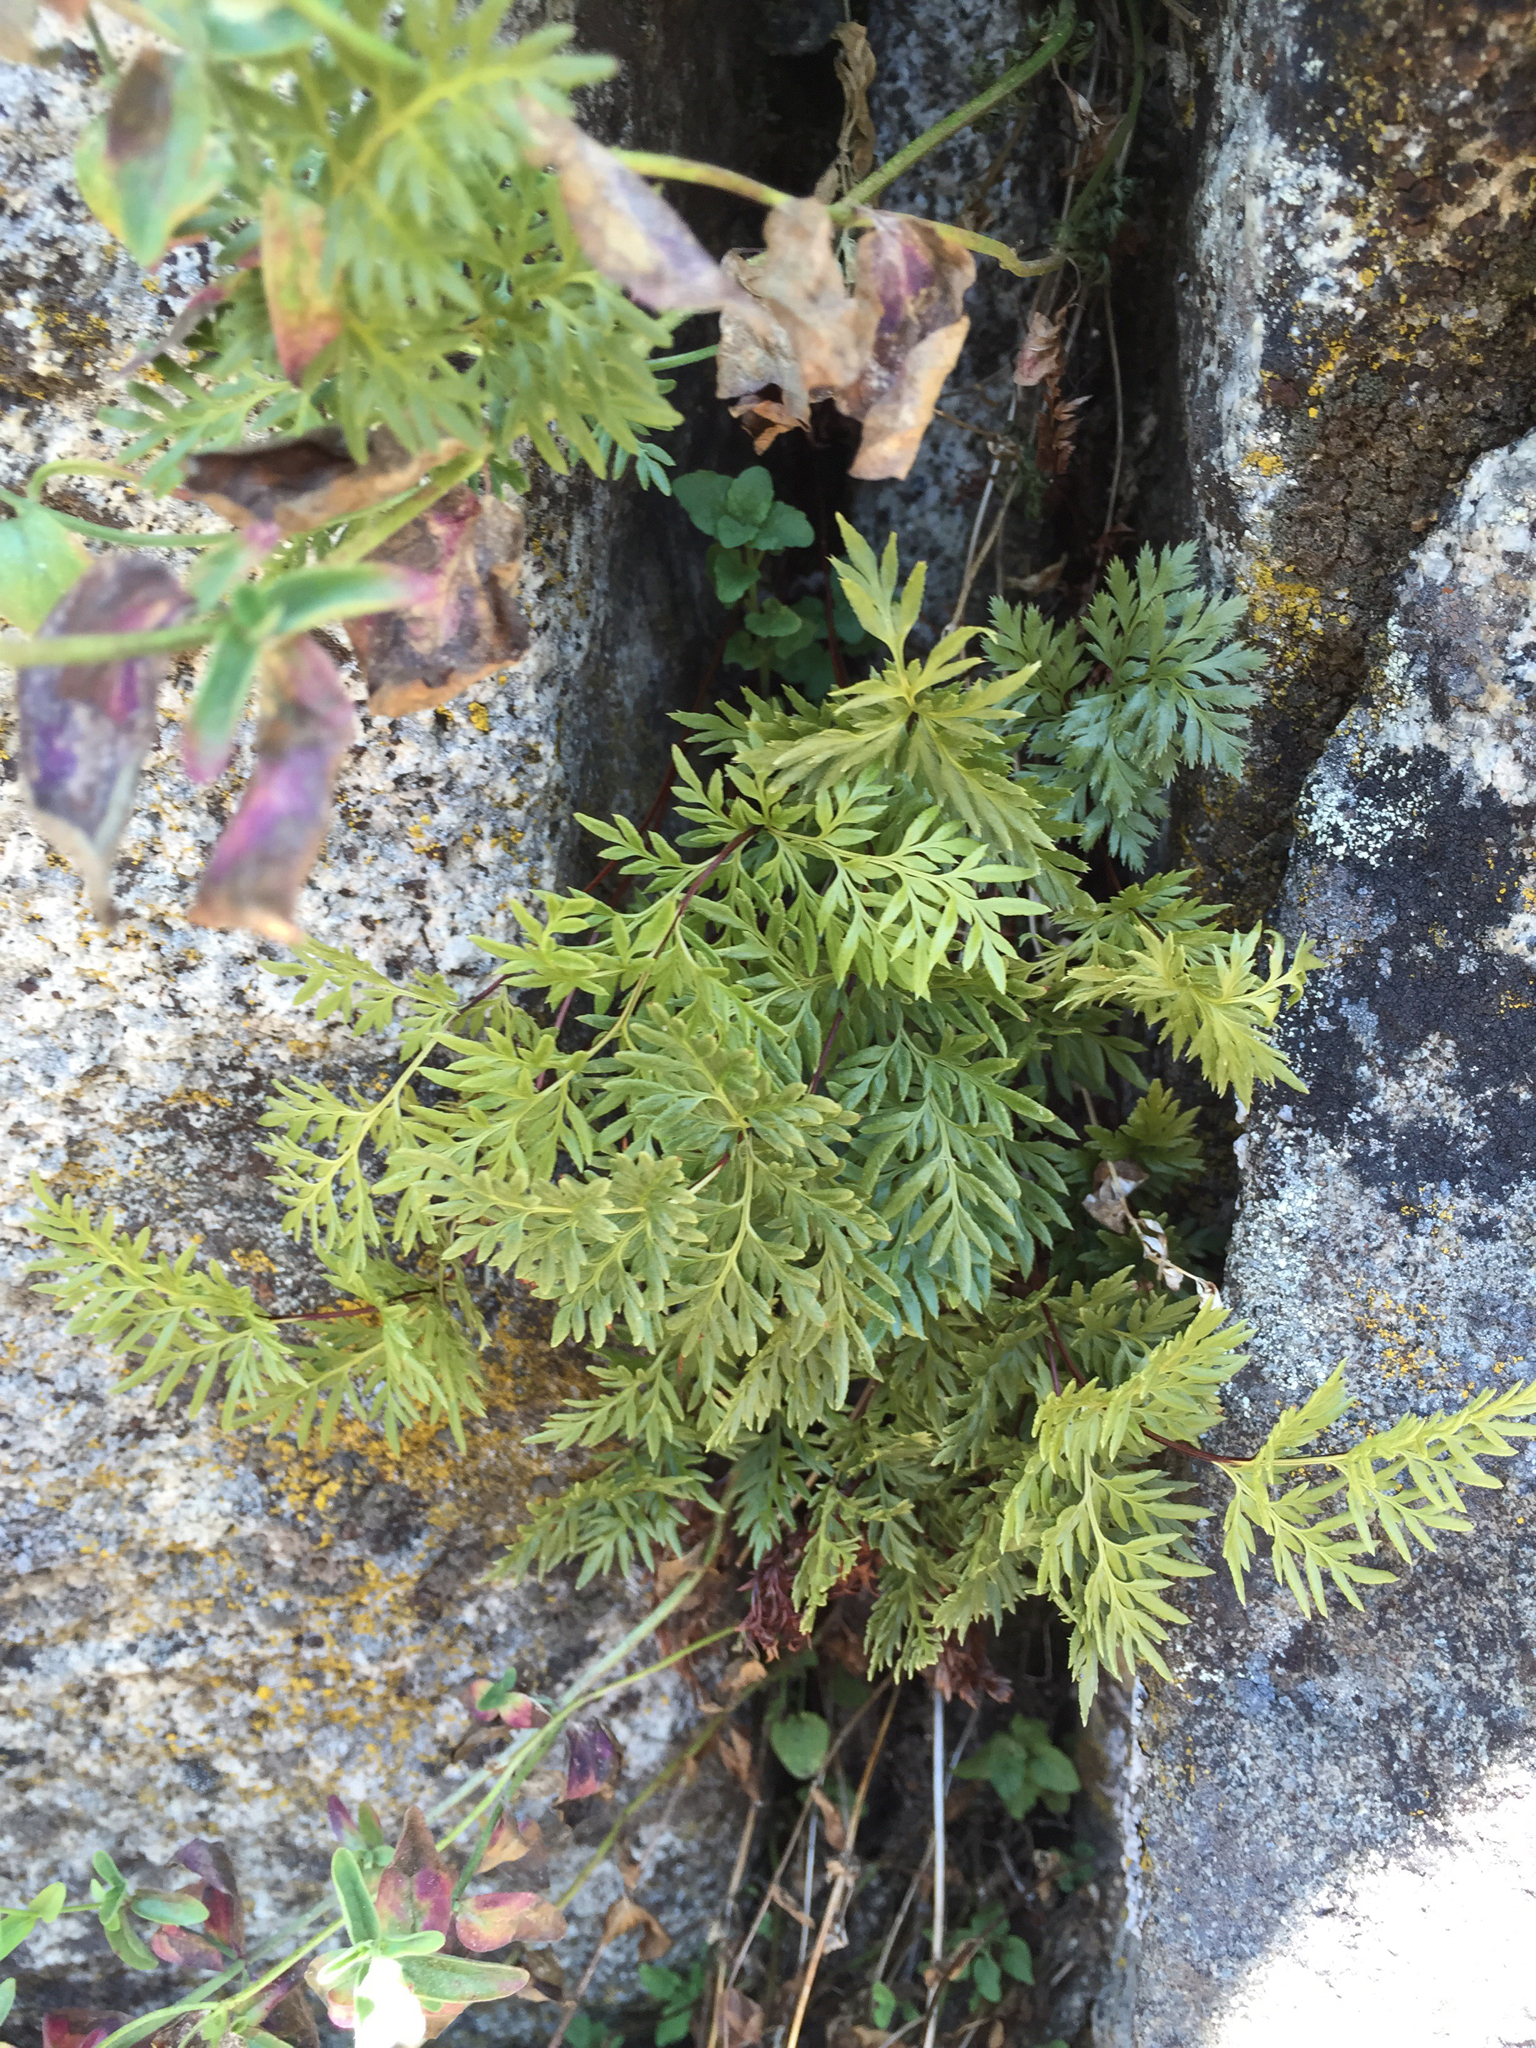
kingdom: Plantae
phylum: Tracheophyta
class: Polypodiopsida
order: Polypodiales
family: Pteridaceae
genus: Aspidotis
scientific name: Aspidotis densa
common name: Indian's dream
